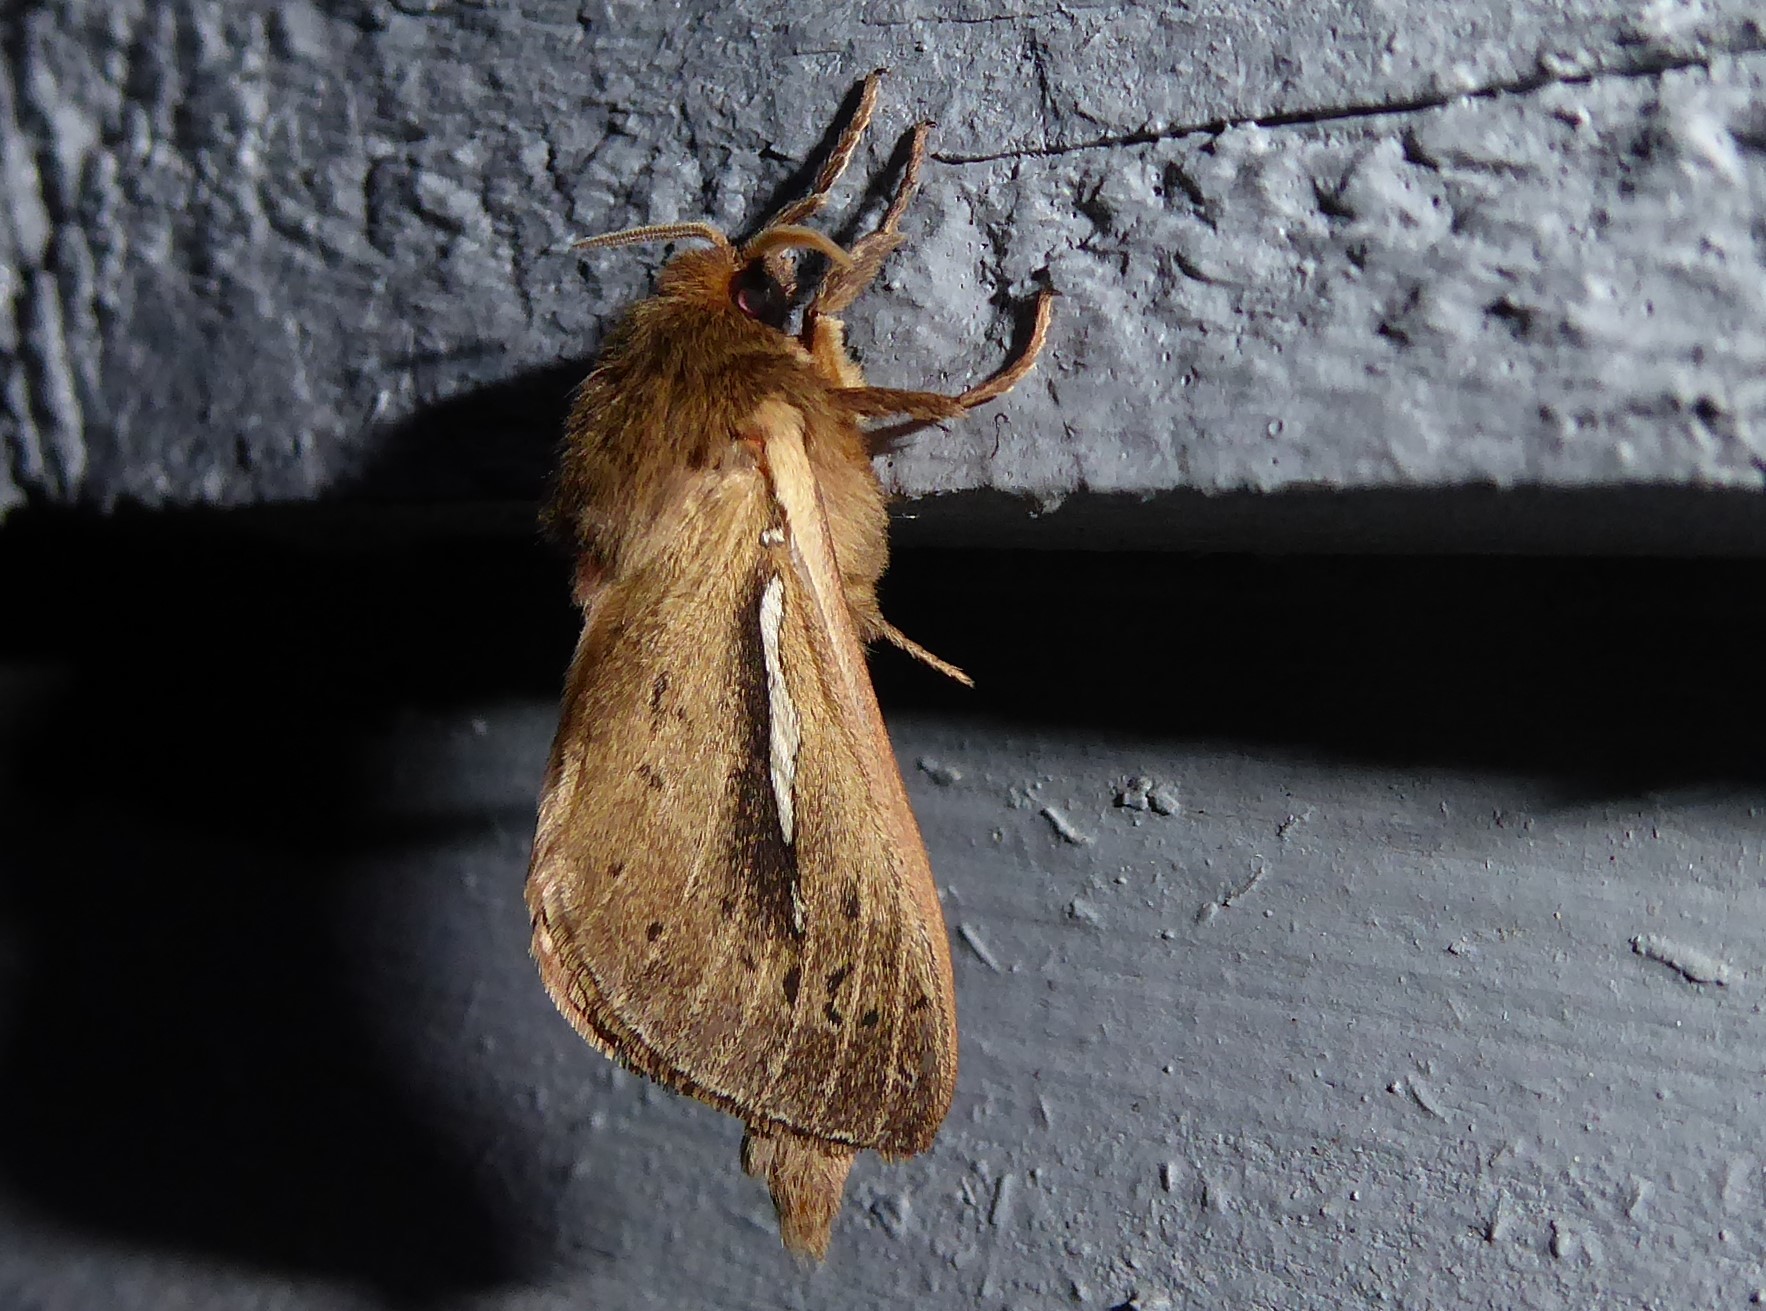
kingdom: Animalia
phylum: Arthropoda
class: Insecta
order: Lepidoptera
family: Hepialidae
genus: Wiseana
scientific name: Wiseana umbraculatus
